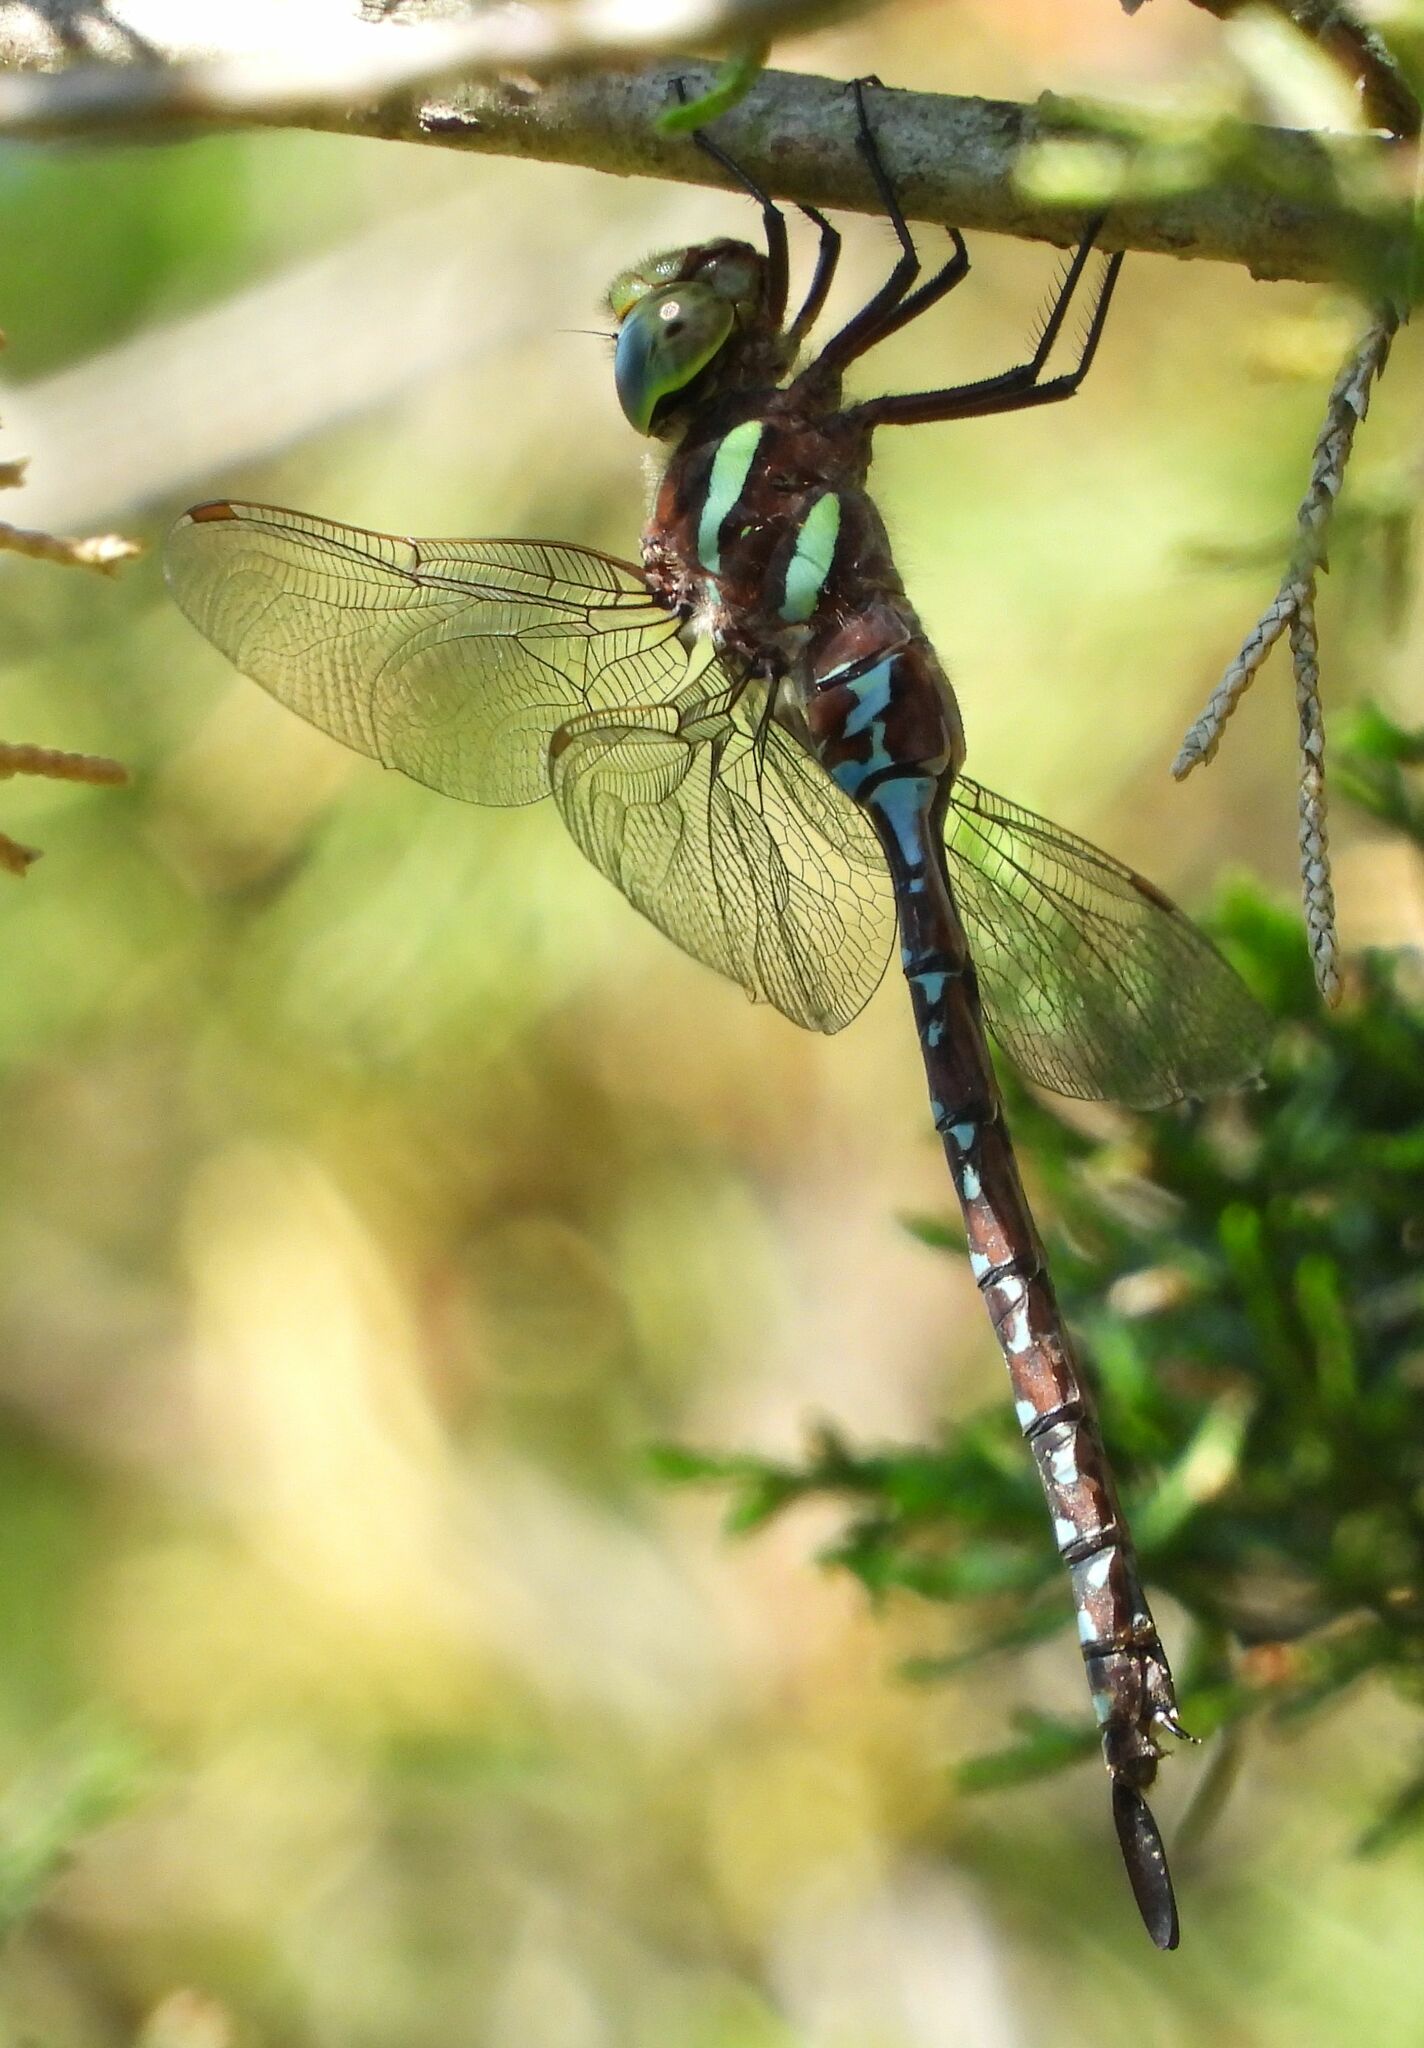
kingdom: Animalia
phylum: Arthropoda
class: Insecta
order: Odonata
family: Aeshnidae
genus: Aeshna
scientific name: Aeshna tuberculifera
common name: Aeschne à tubercules
